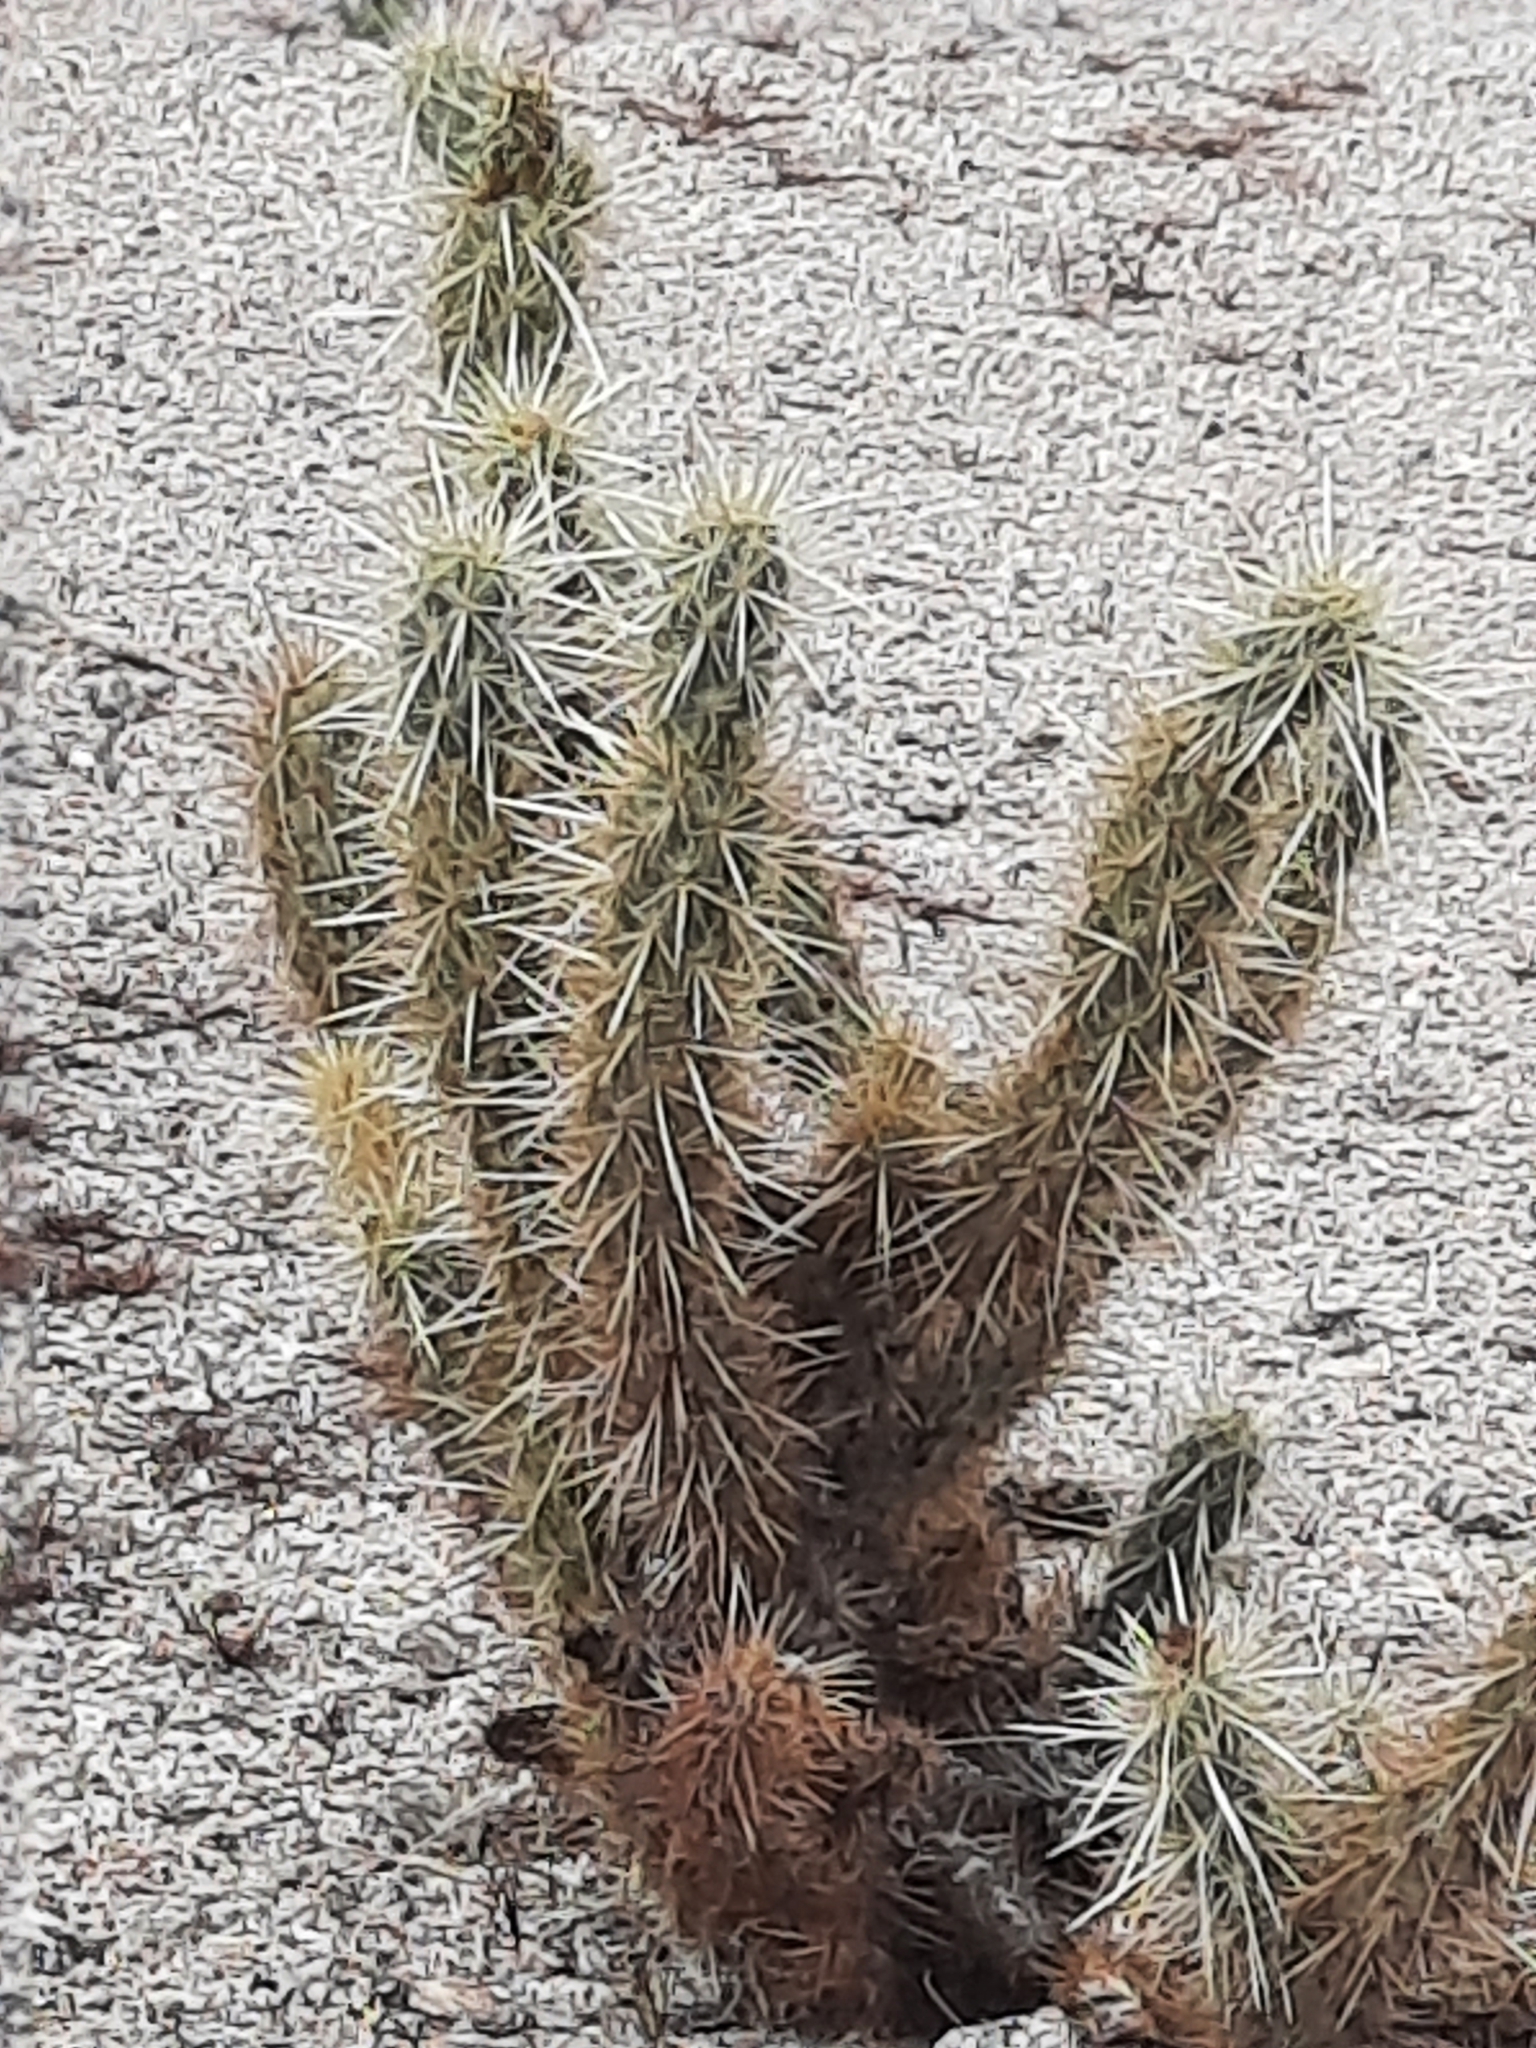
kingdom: Plantae
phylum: Tracheophyta
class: Magnoliopsida
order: Caryophyllales
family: Cactaceae
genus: Cylindropuntia
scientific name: Cylindropuntia ganderi
